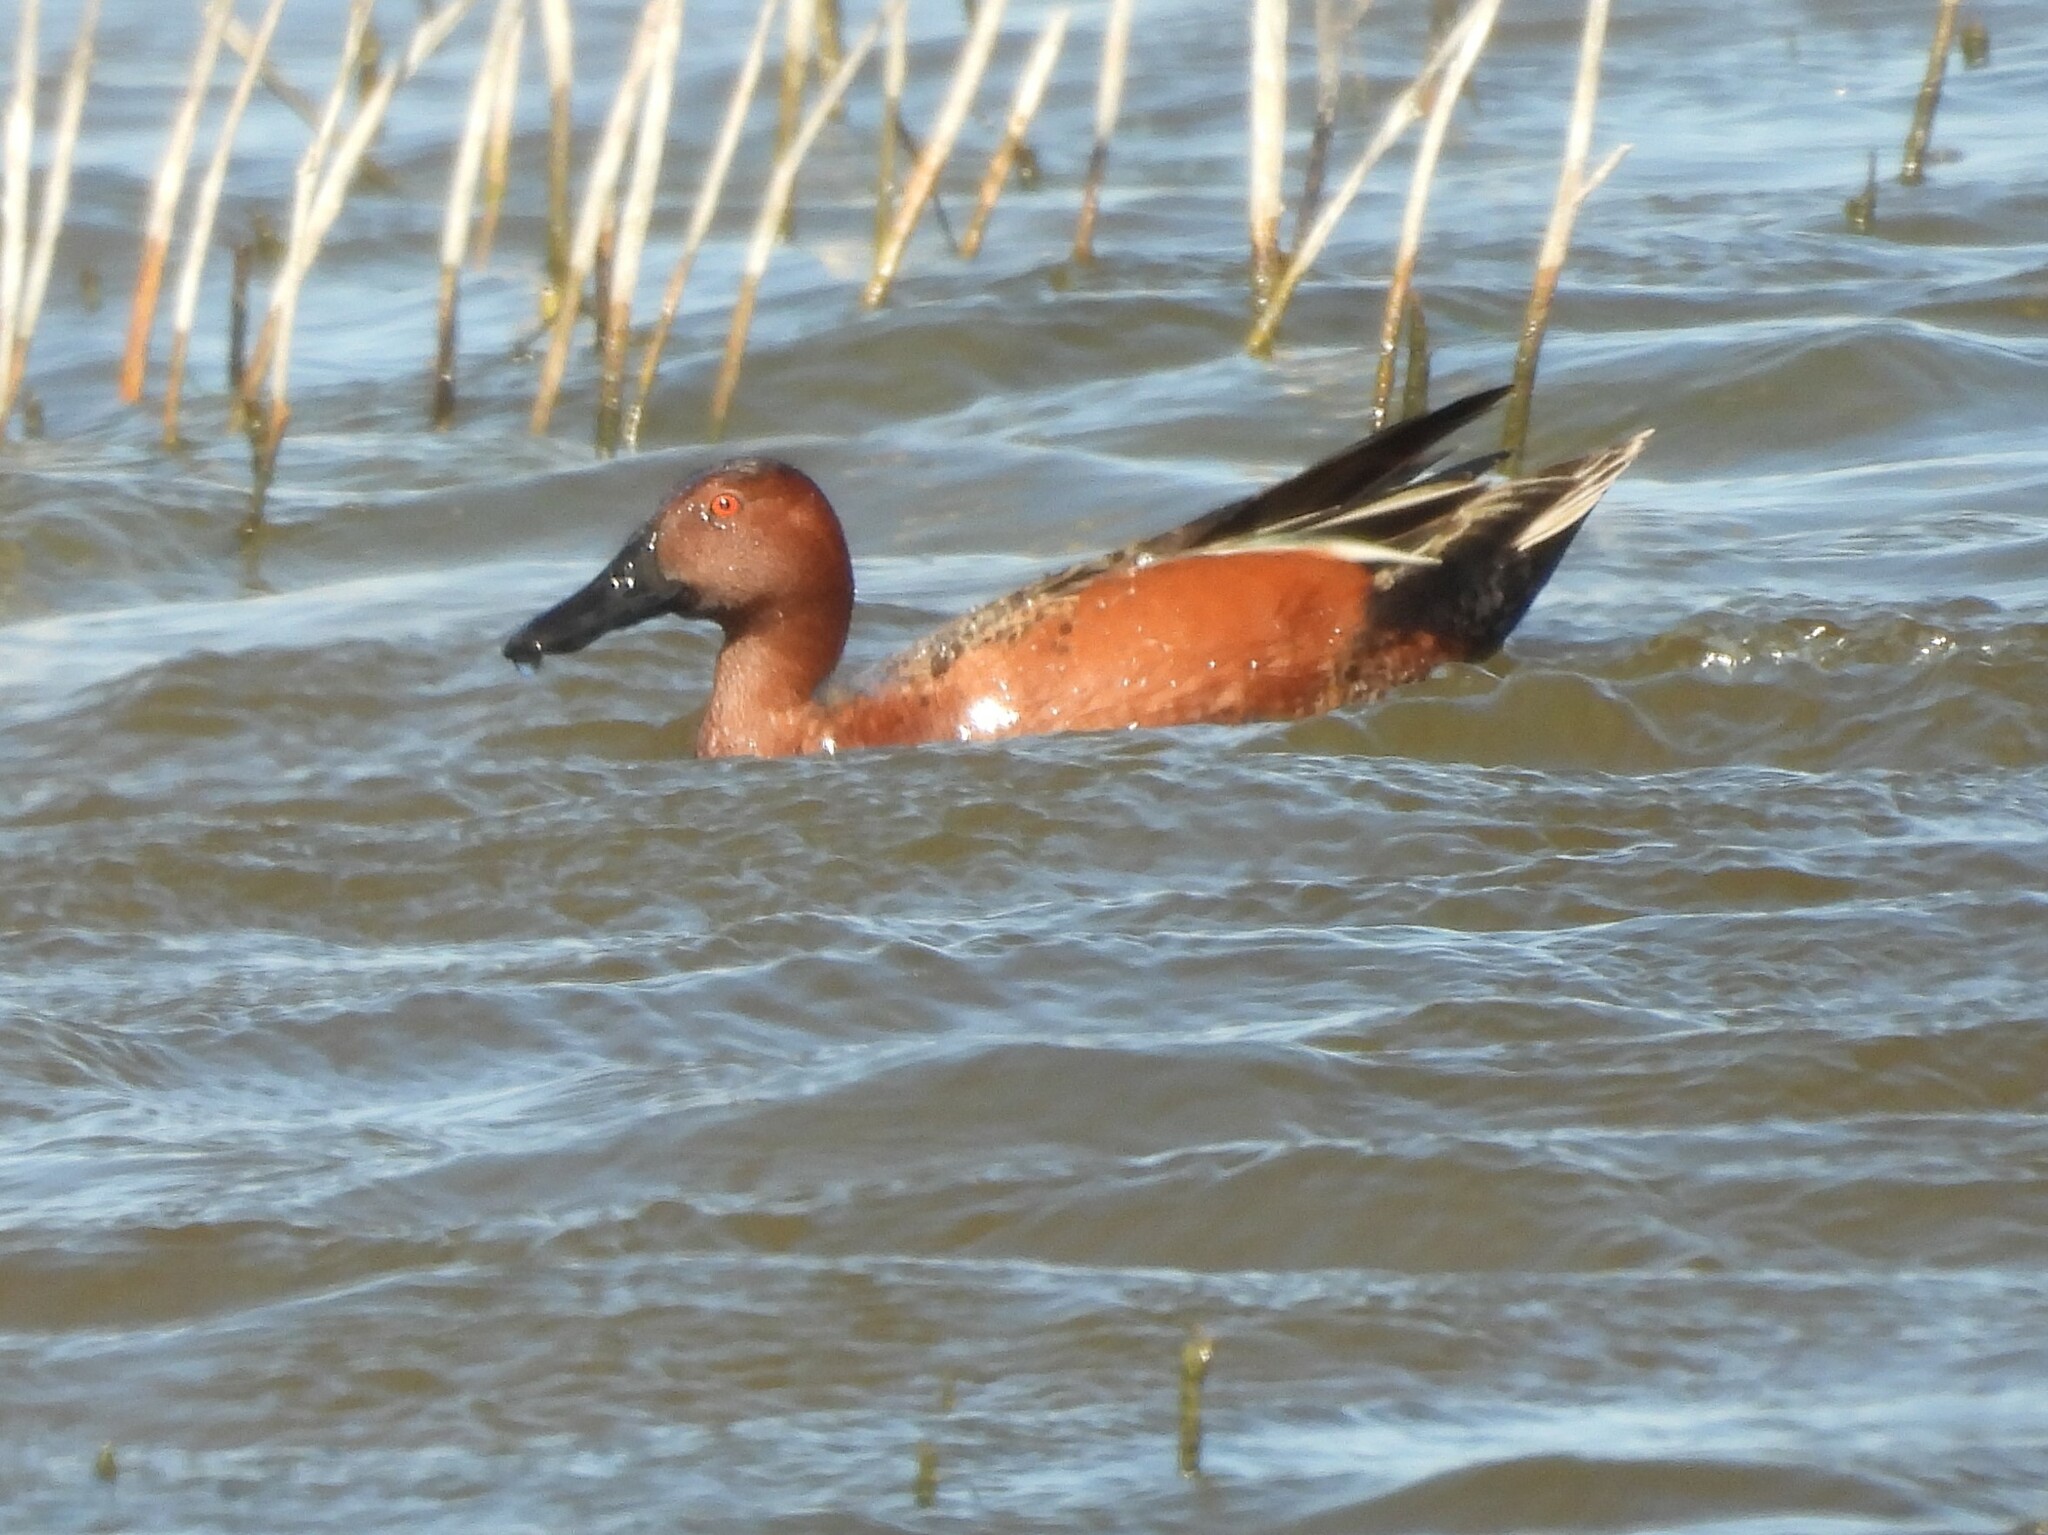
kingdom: Animalia
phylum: Chordata
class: Aves
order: Anseriformes
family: Anatidae
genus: Spatula
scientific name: Spatula cyanoptera
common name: Cinnamon teal
